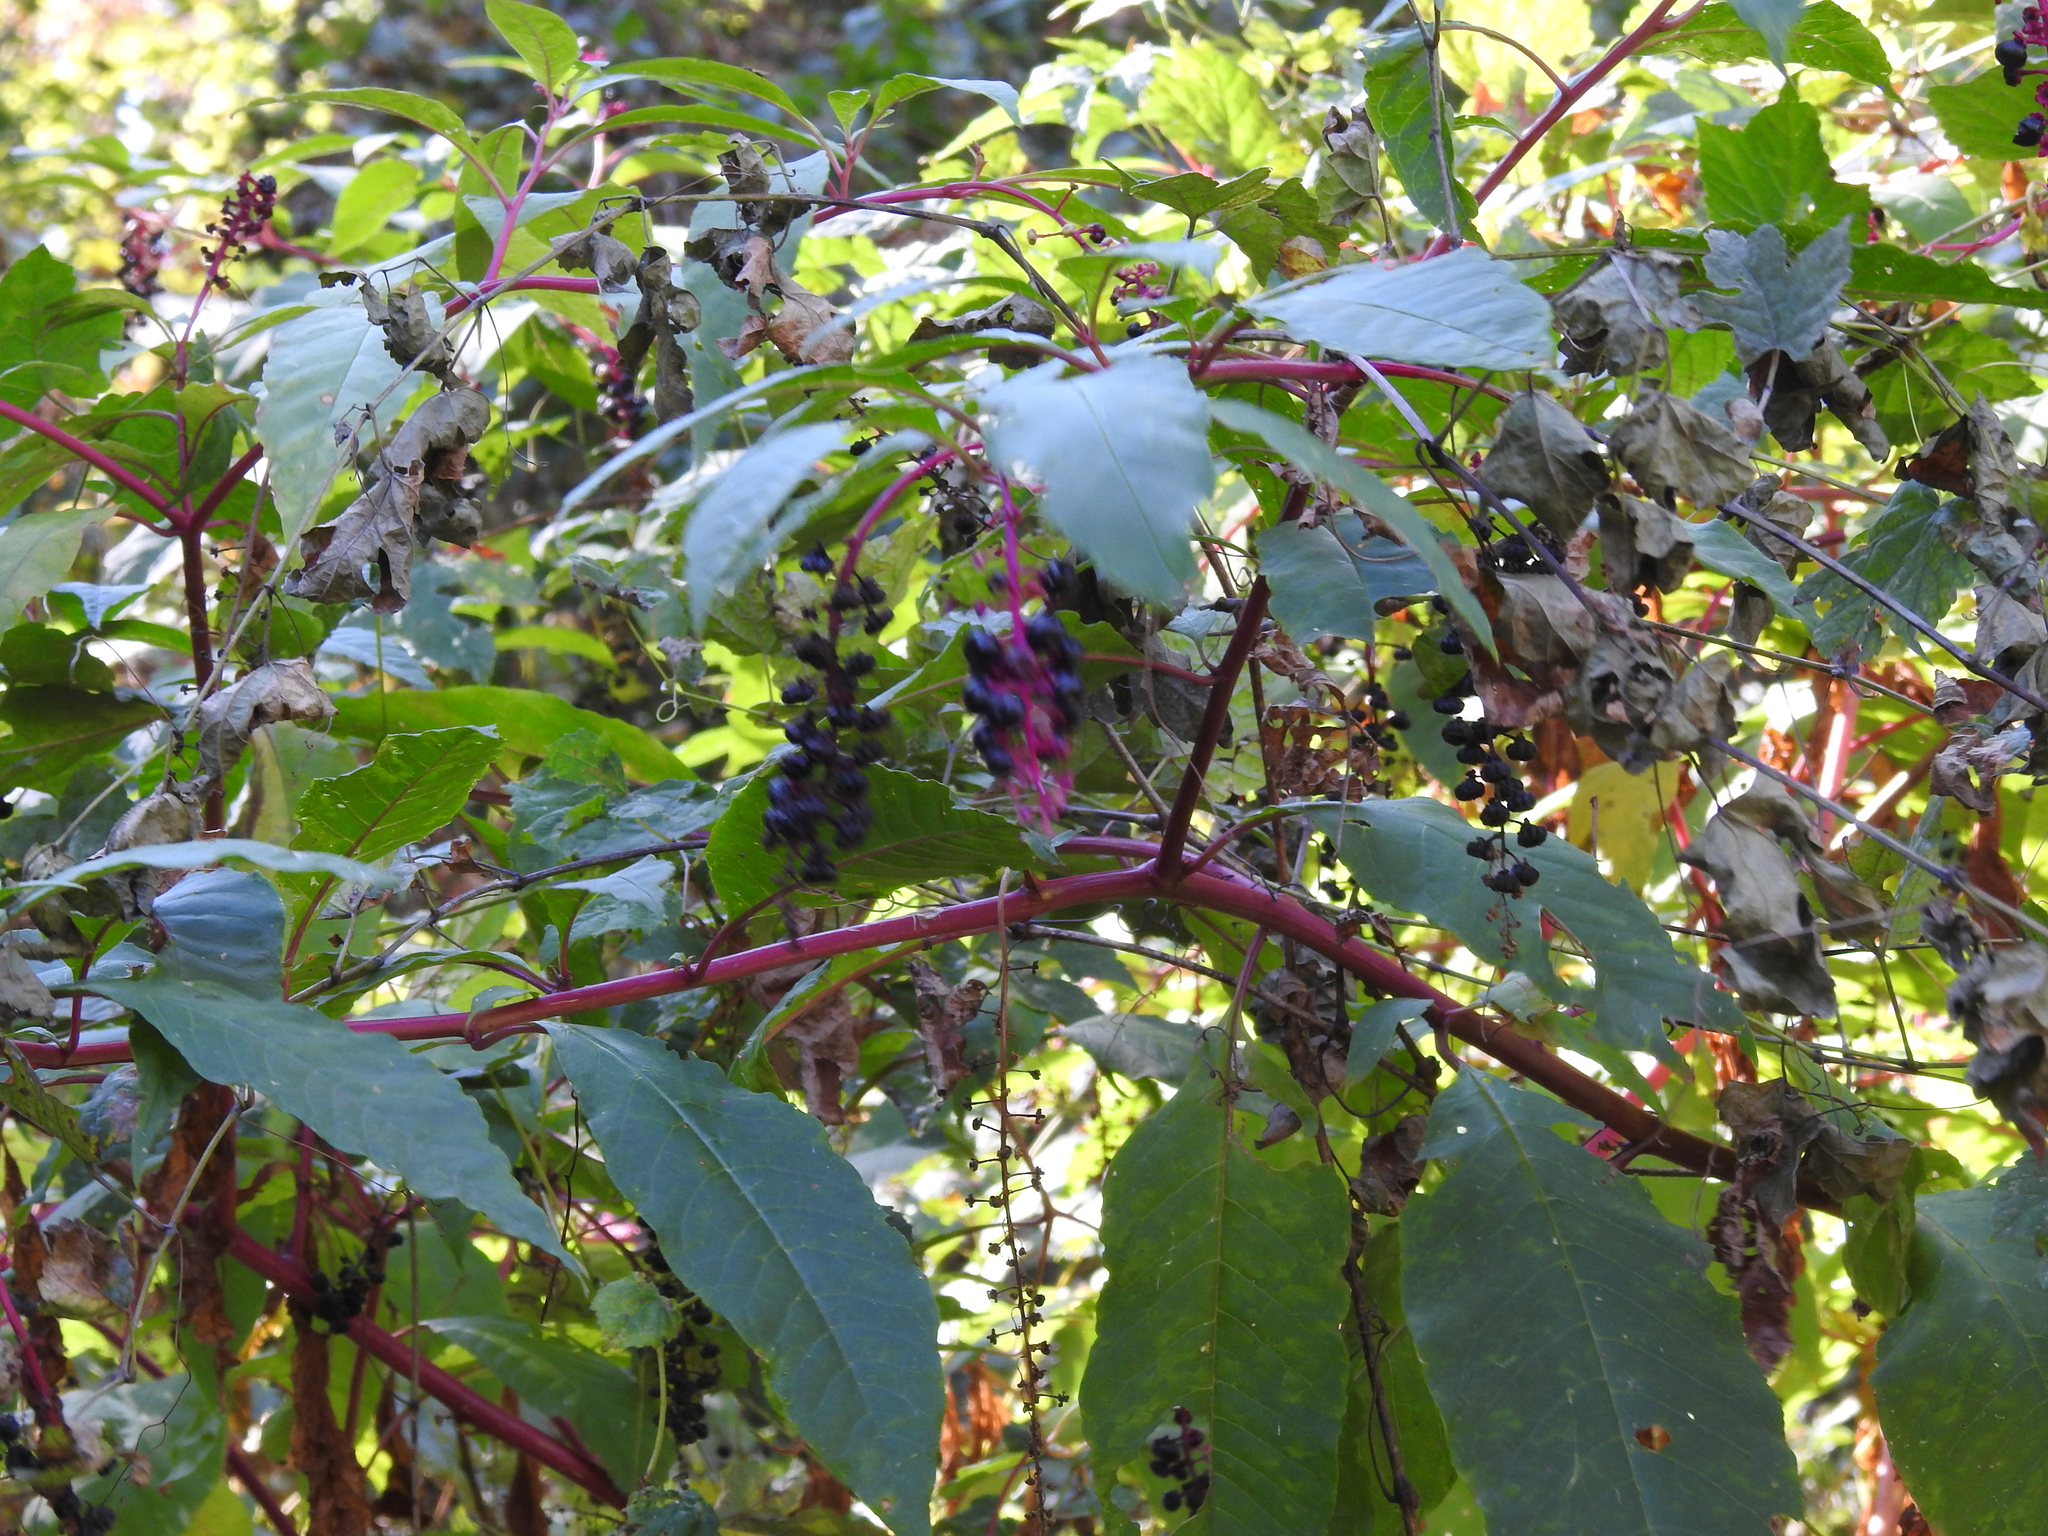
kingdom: Plantae
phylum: Tracheophyta
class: Magnoliopsida
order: Caryophyllales
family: Phytolaccaceae
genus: Phytolacca
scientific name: Phytolacca americana
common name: American pokeweed
